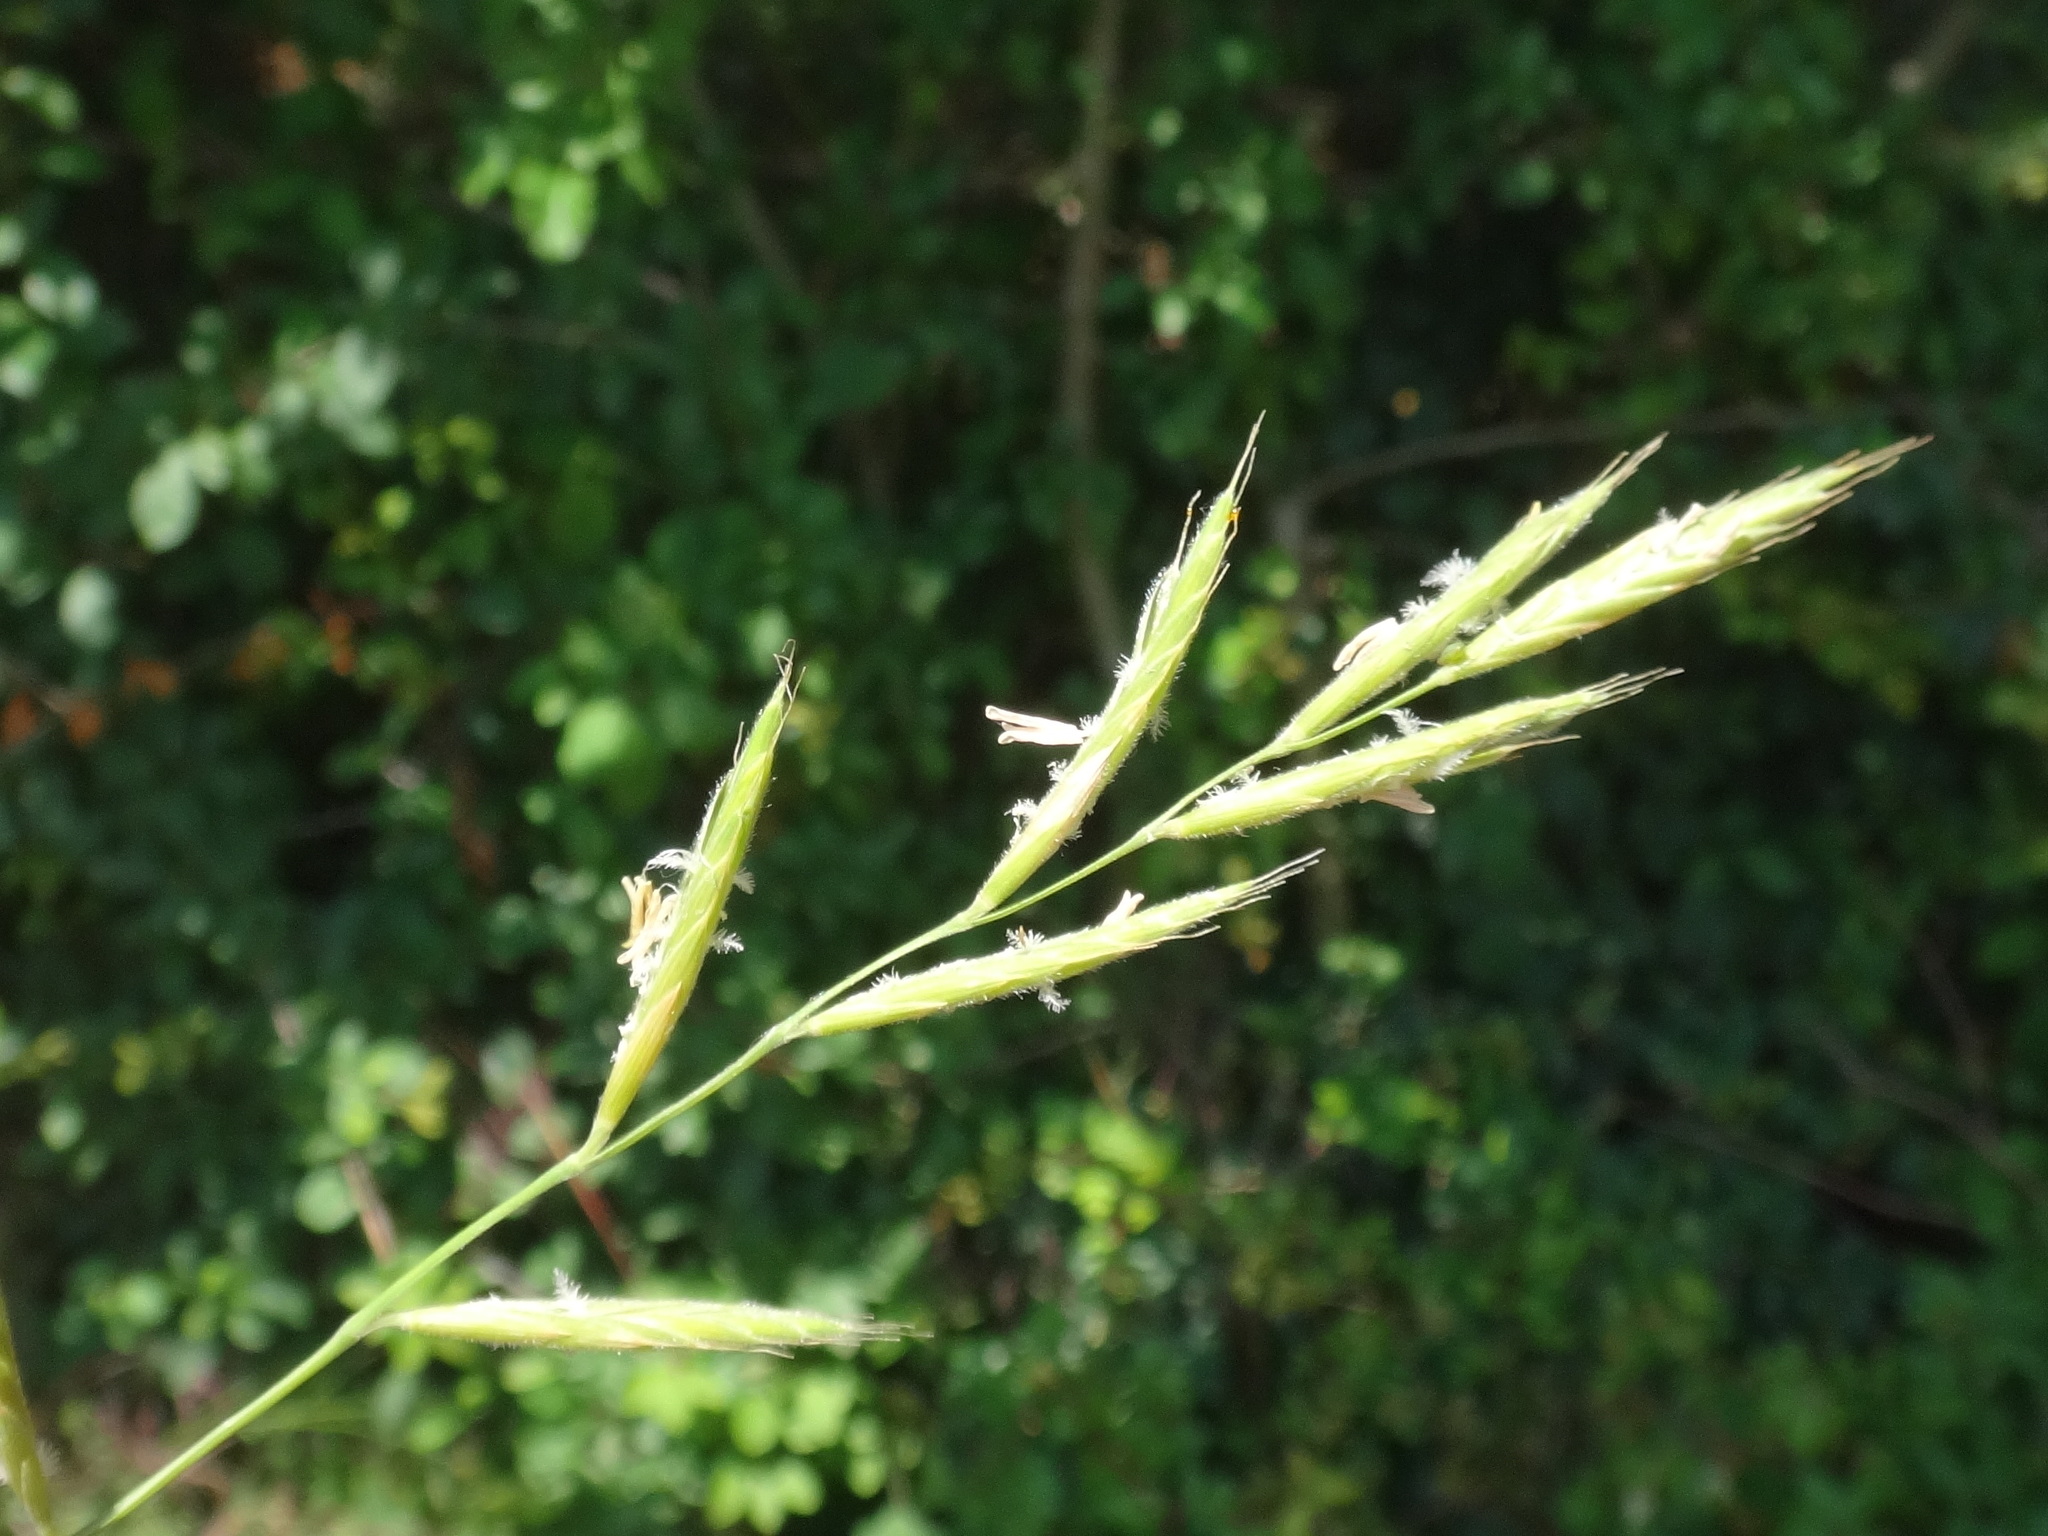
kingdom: Plantae
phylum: Tracheophyta
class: Liliopsida
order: Poales
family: Poaceae
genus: Brachypodium
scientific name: Brachypodium pinnatum
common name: Tor grass
